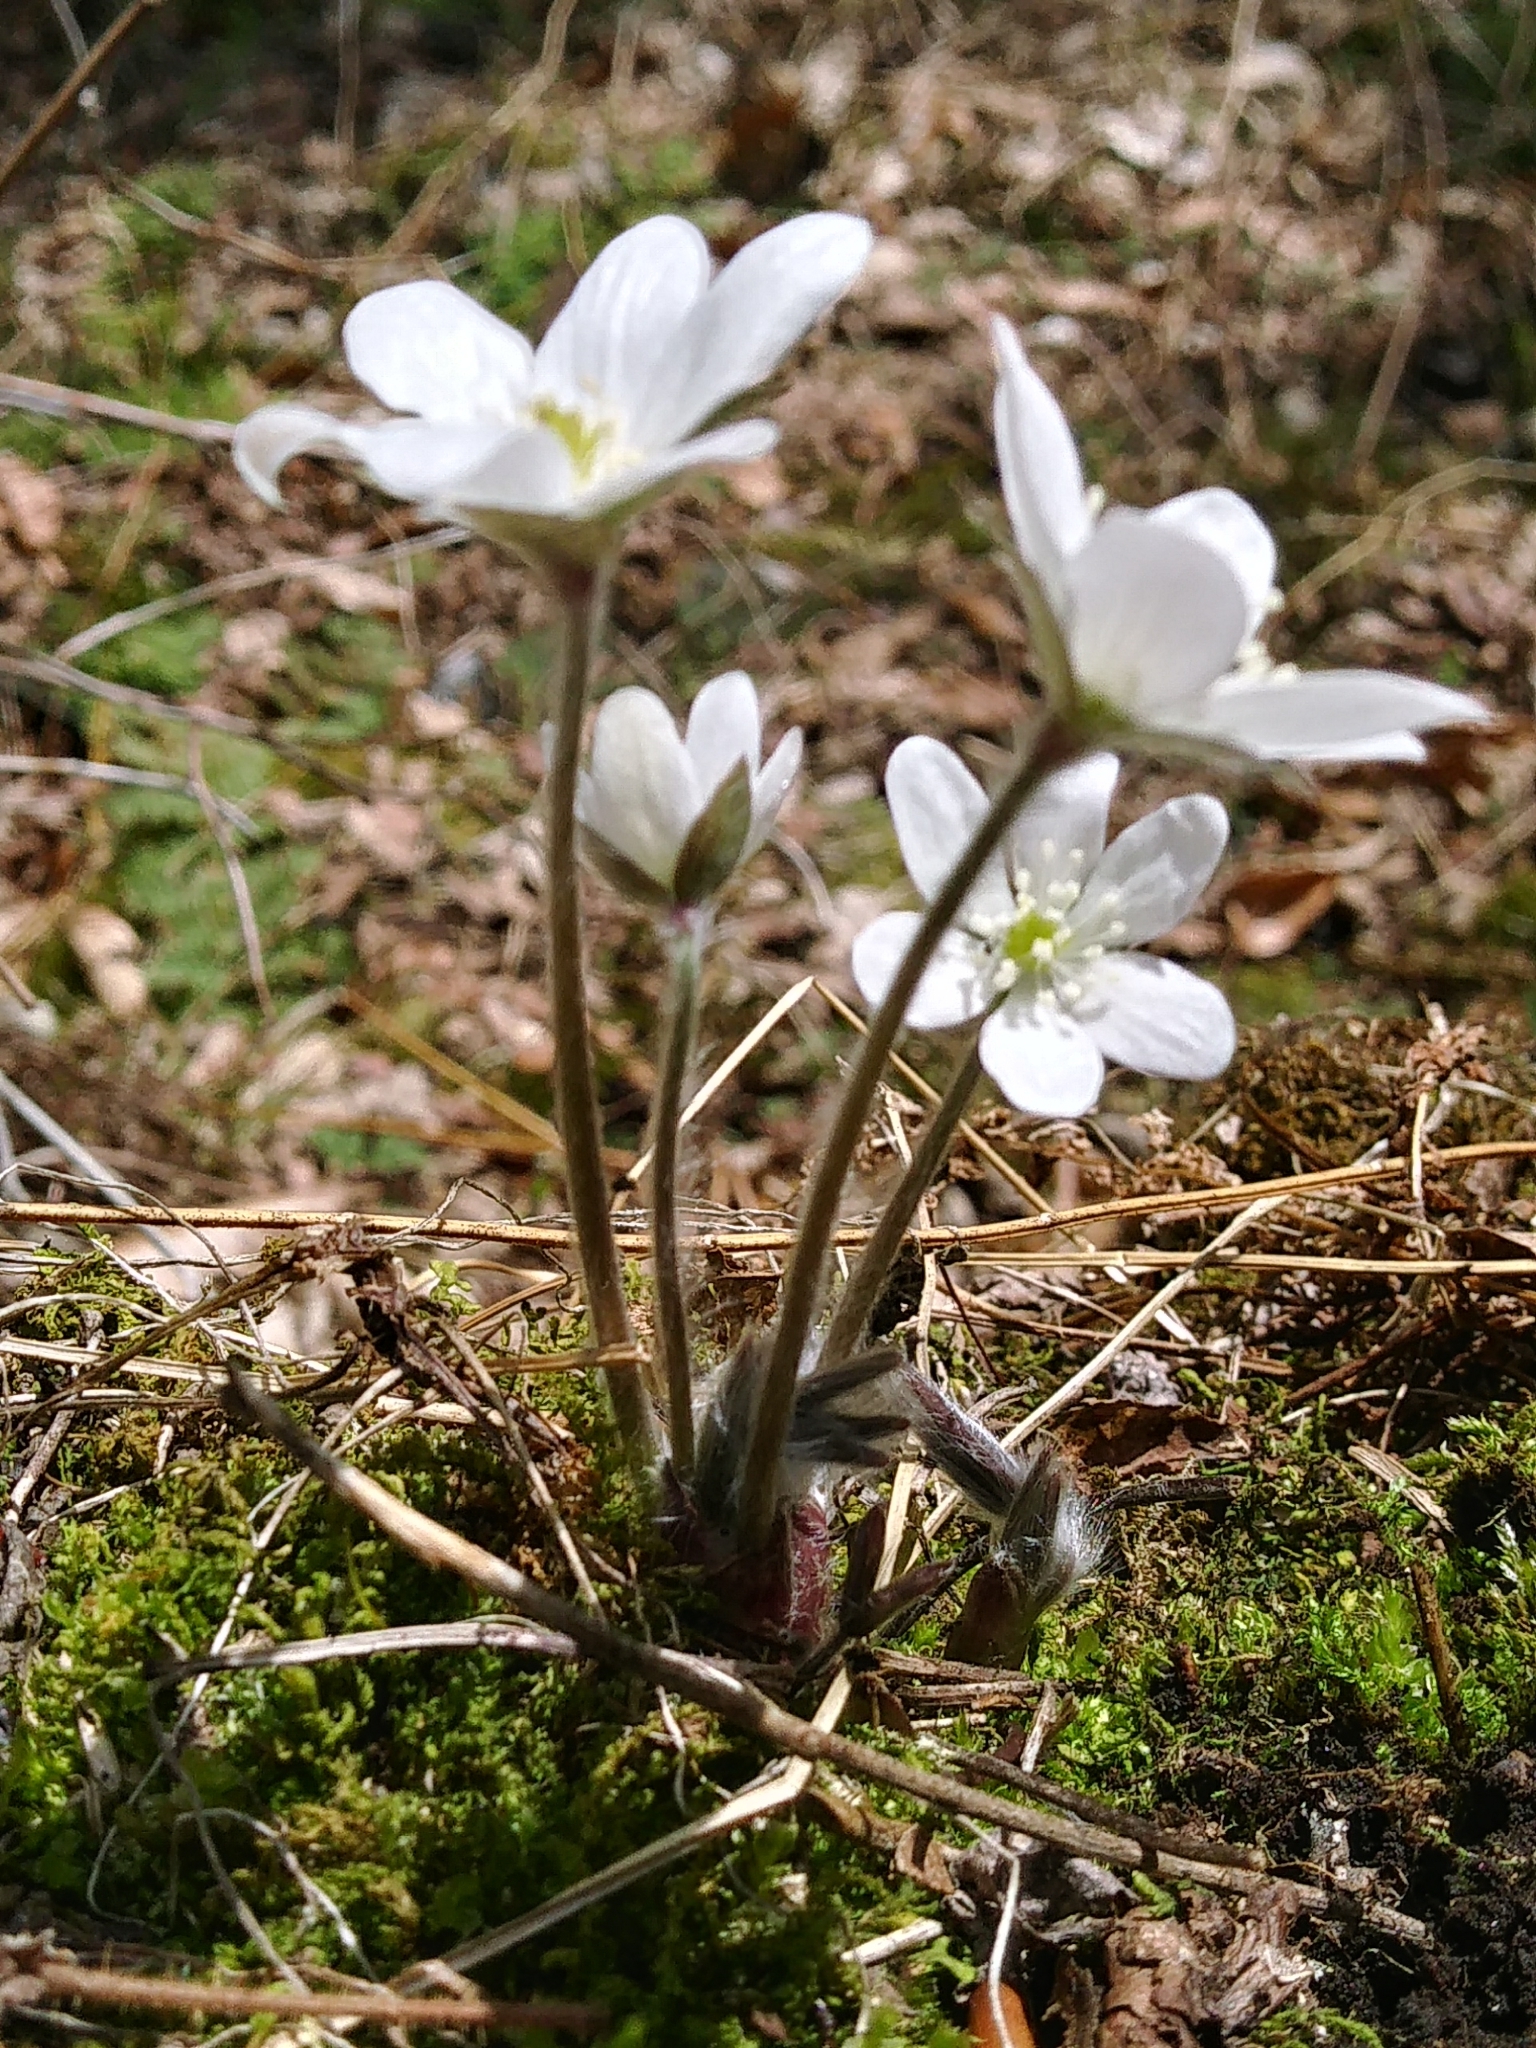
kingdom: Plantae
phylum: Tracheophyta
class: Magnoliopsida
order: Ranunculales
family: Ranunculaceae
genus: Hepatica
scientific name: Hepatica acutiloba
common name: Sharp-lobed hepatica
